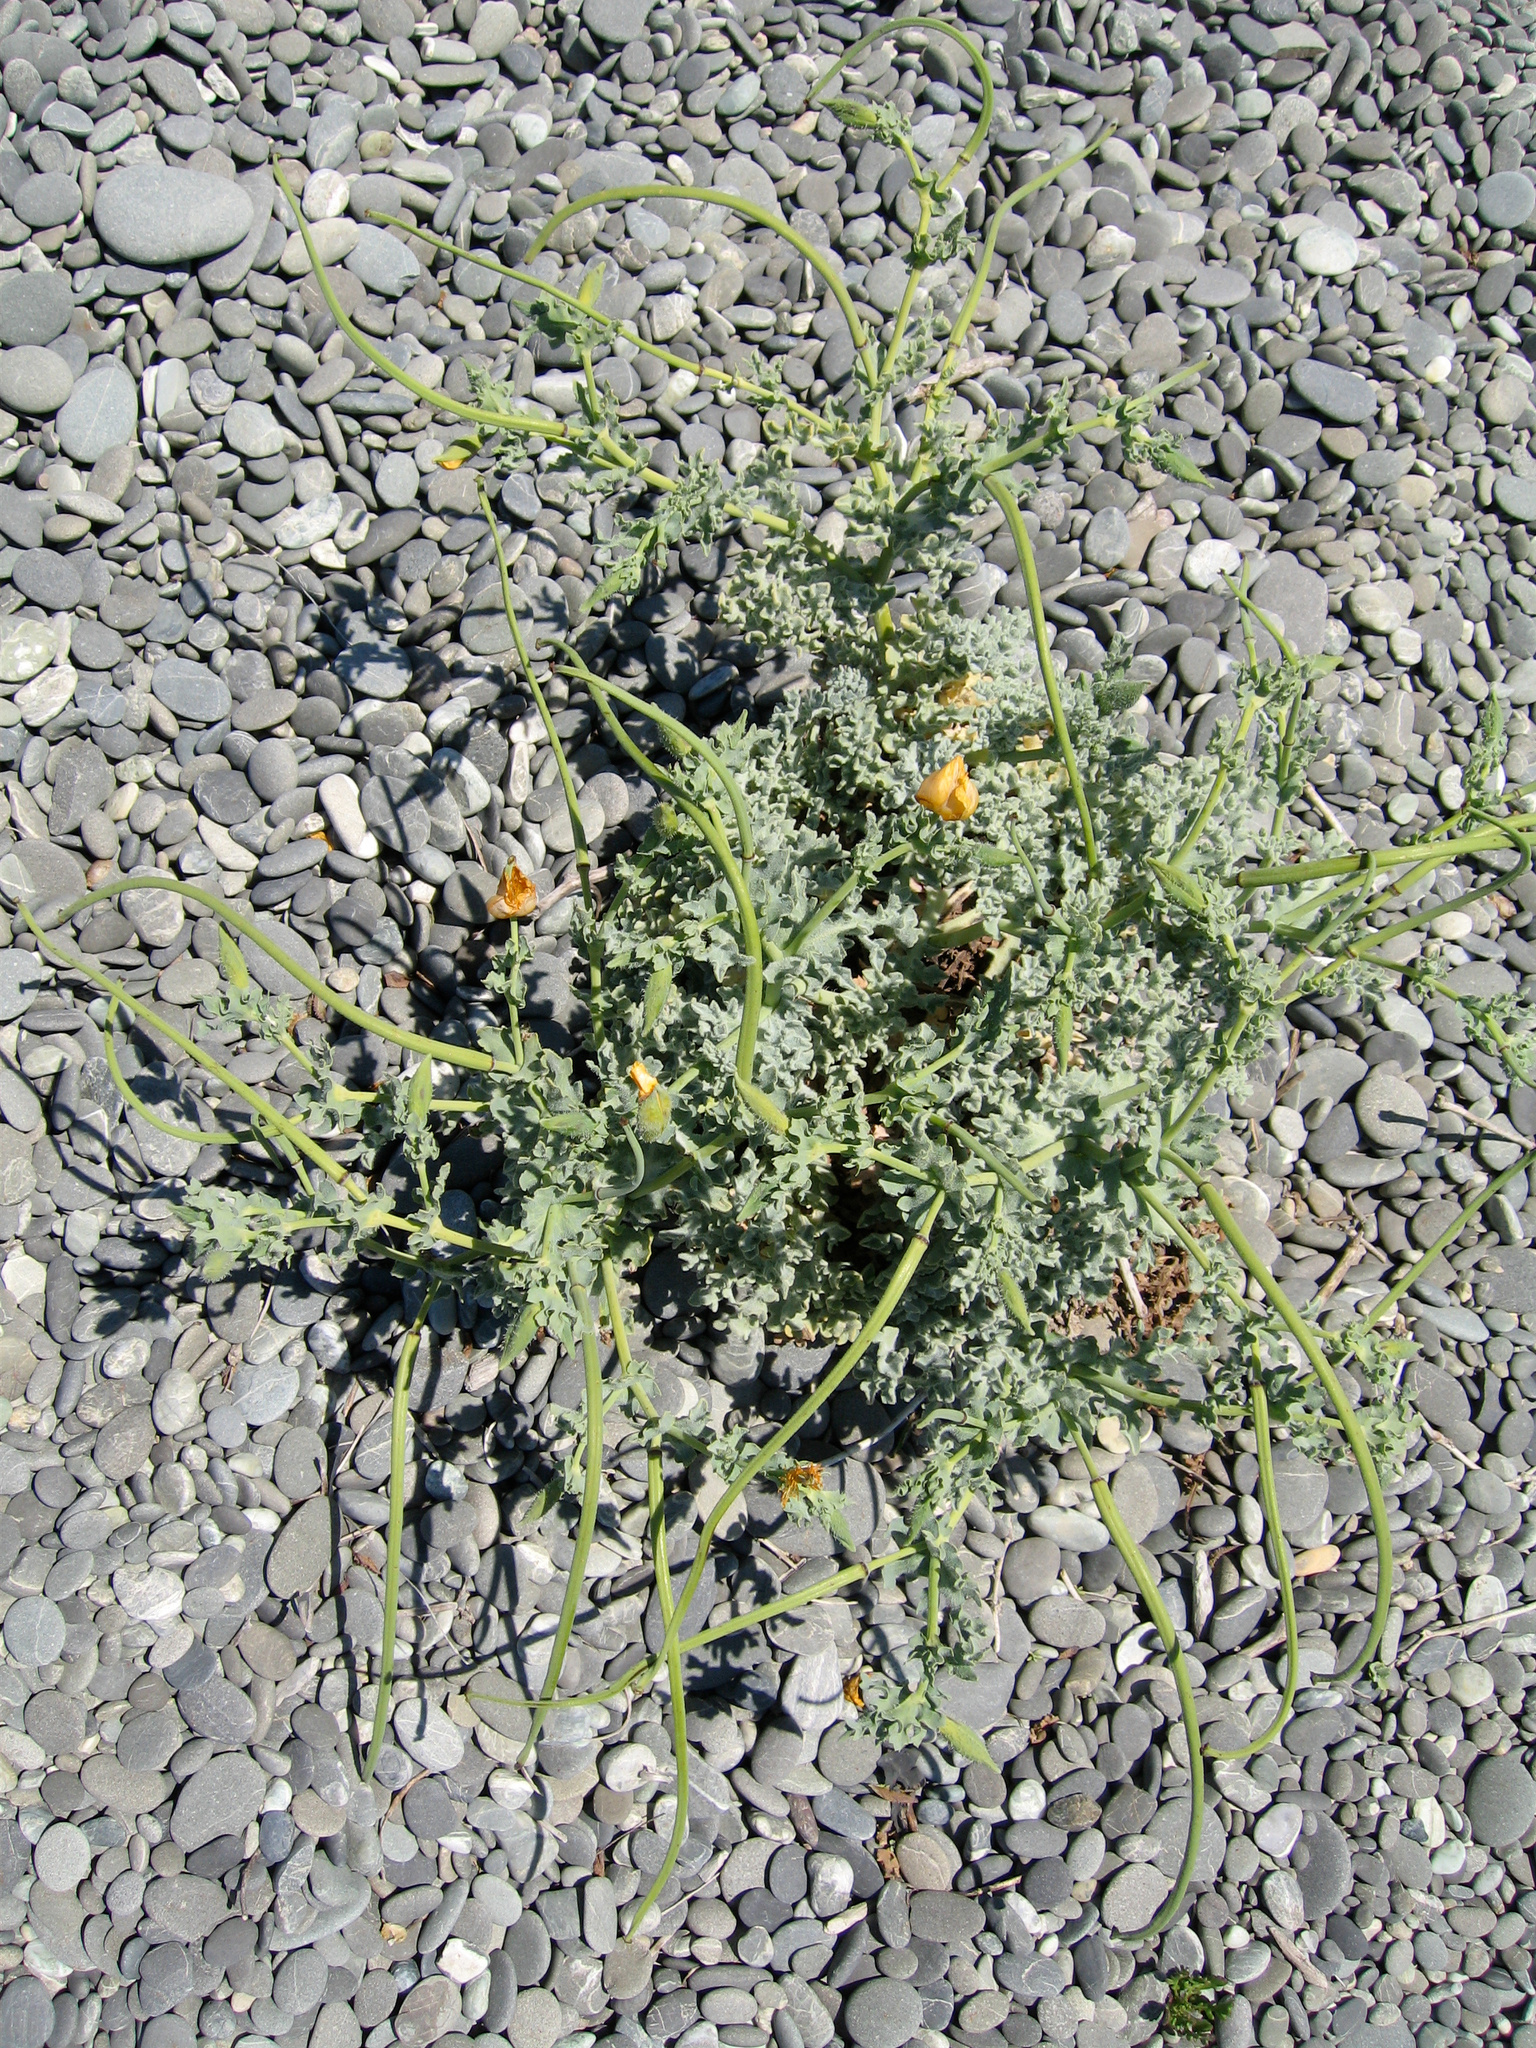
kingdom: Plantae
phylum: Tracheophyta
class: Magnoliopsida
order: Ranunculales
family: Papaveraceae
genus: Glaucium
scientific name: Glaucium flavum
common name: Yellow horned-poppy
